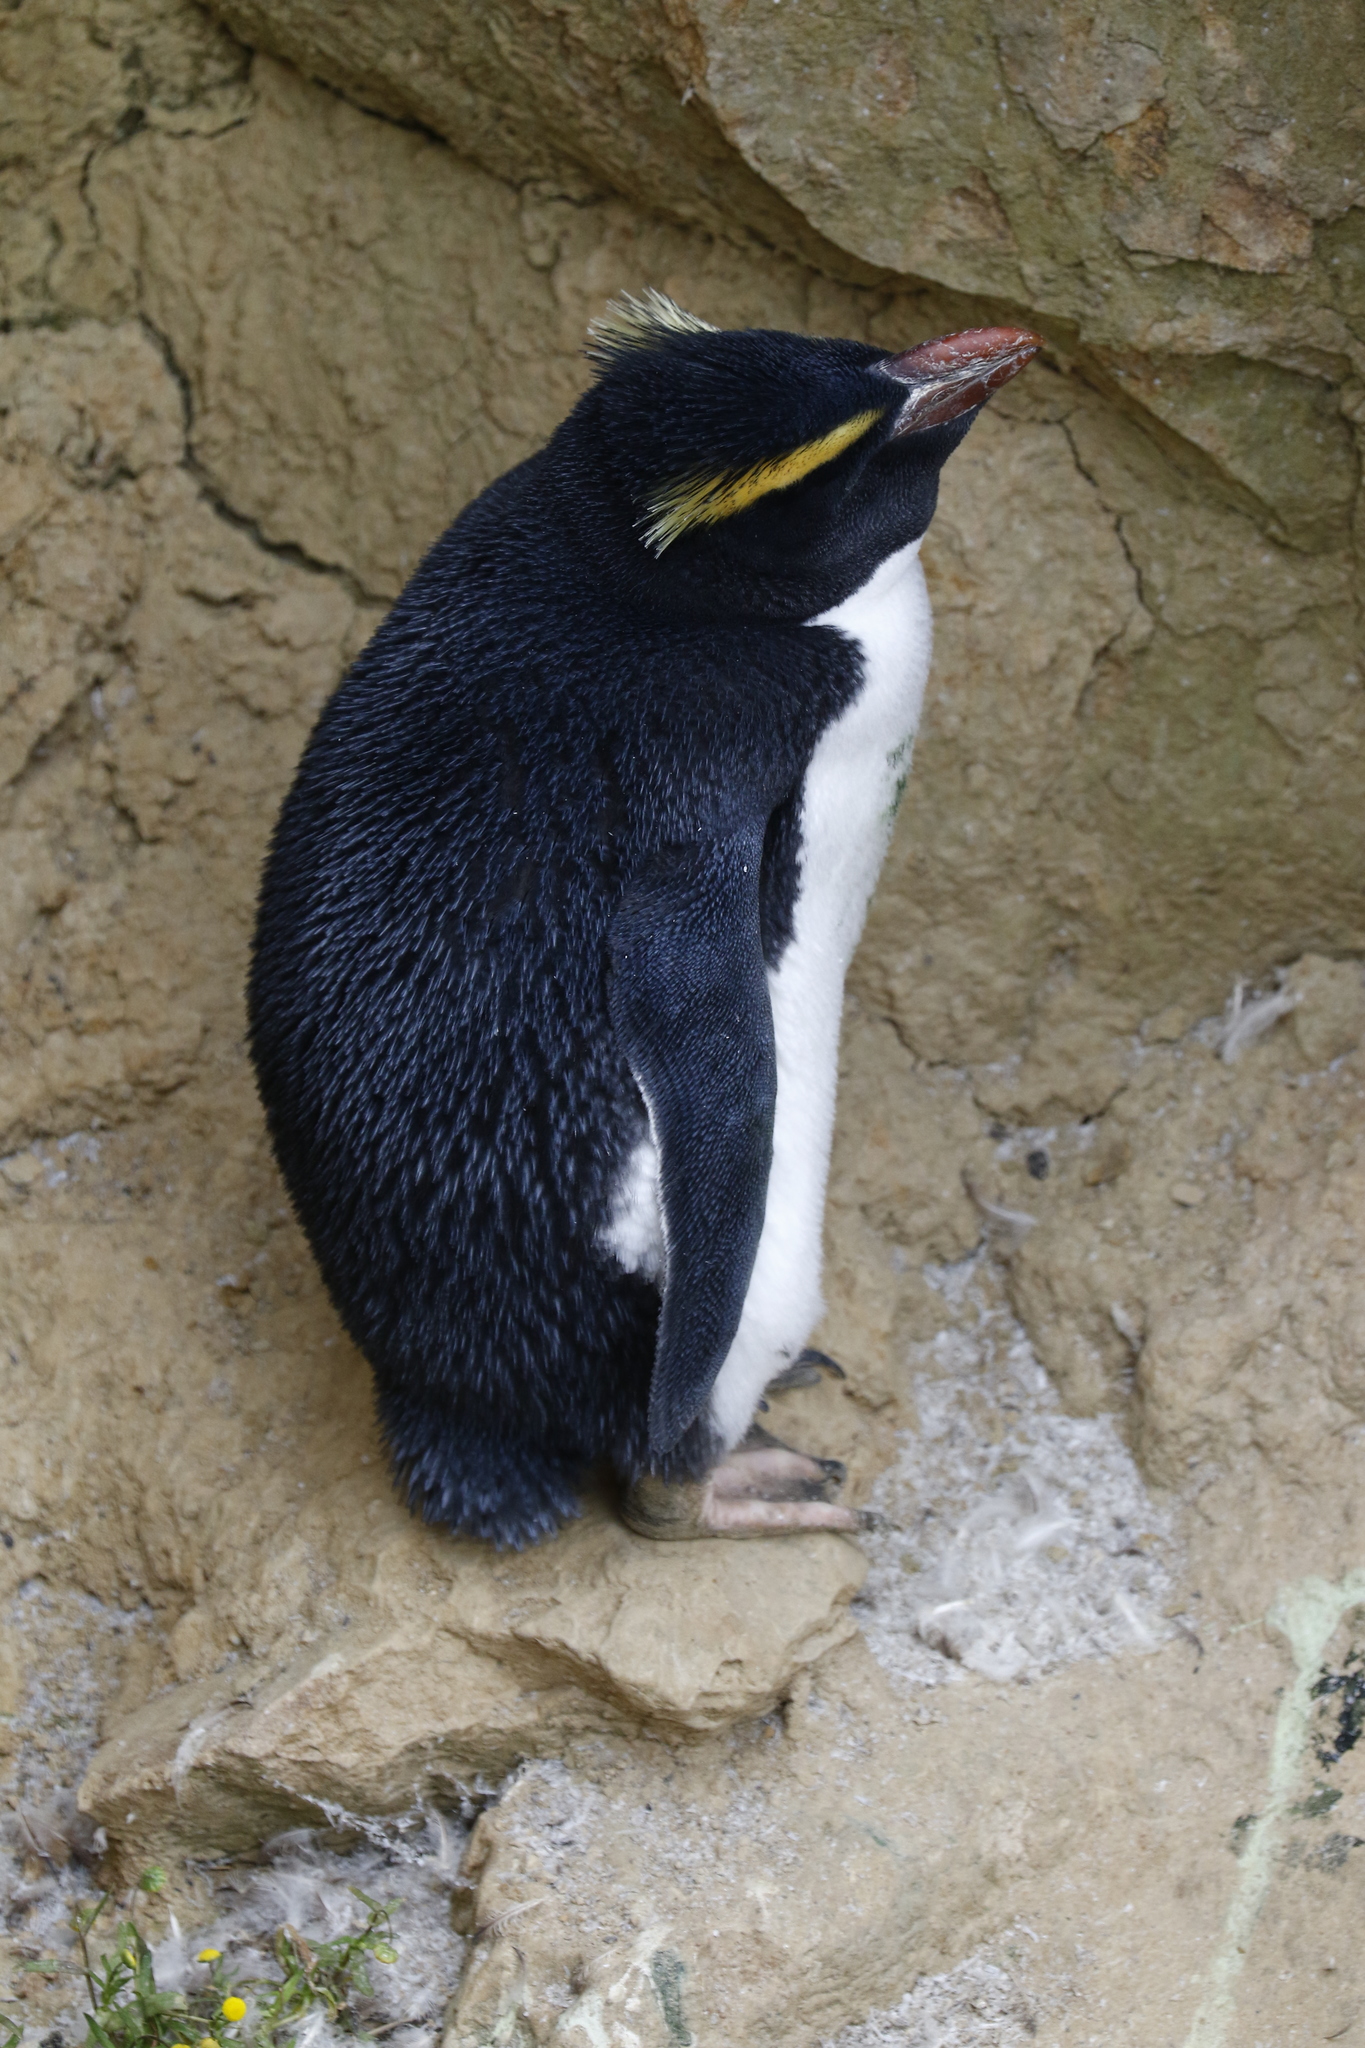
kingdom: Animalia
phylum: Chordata
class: Aves
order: Sphenisciformes
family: Spheniscidae
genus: Eudyptes
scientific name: Eudyptes pachyrhynchus
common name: Fiordland penguin
